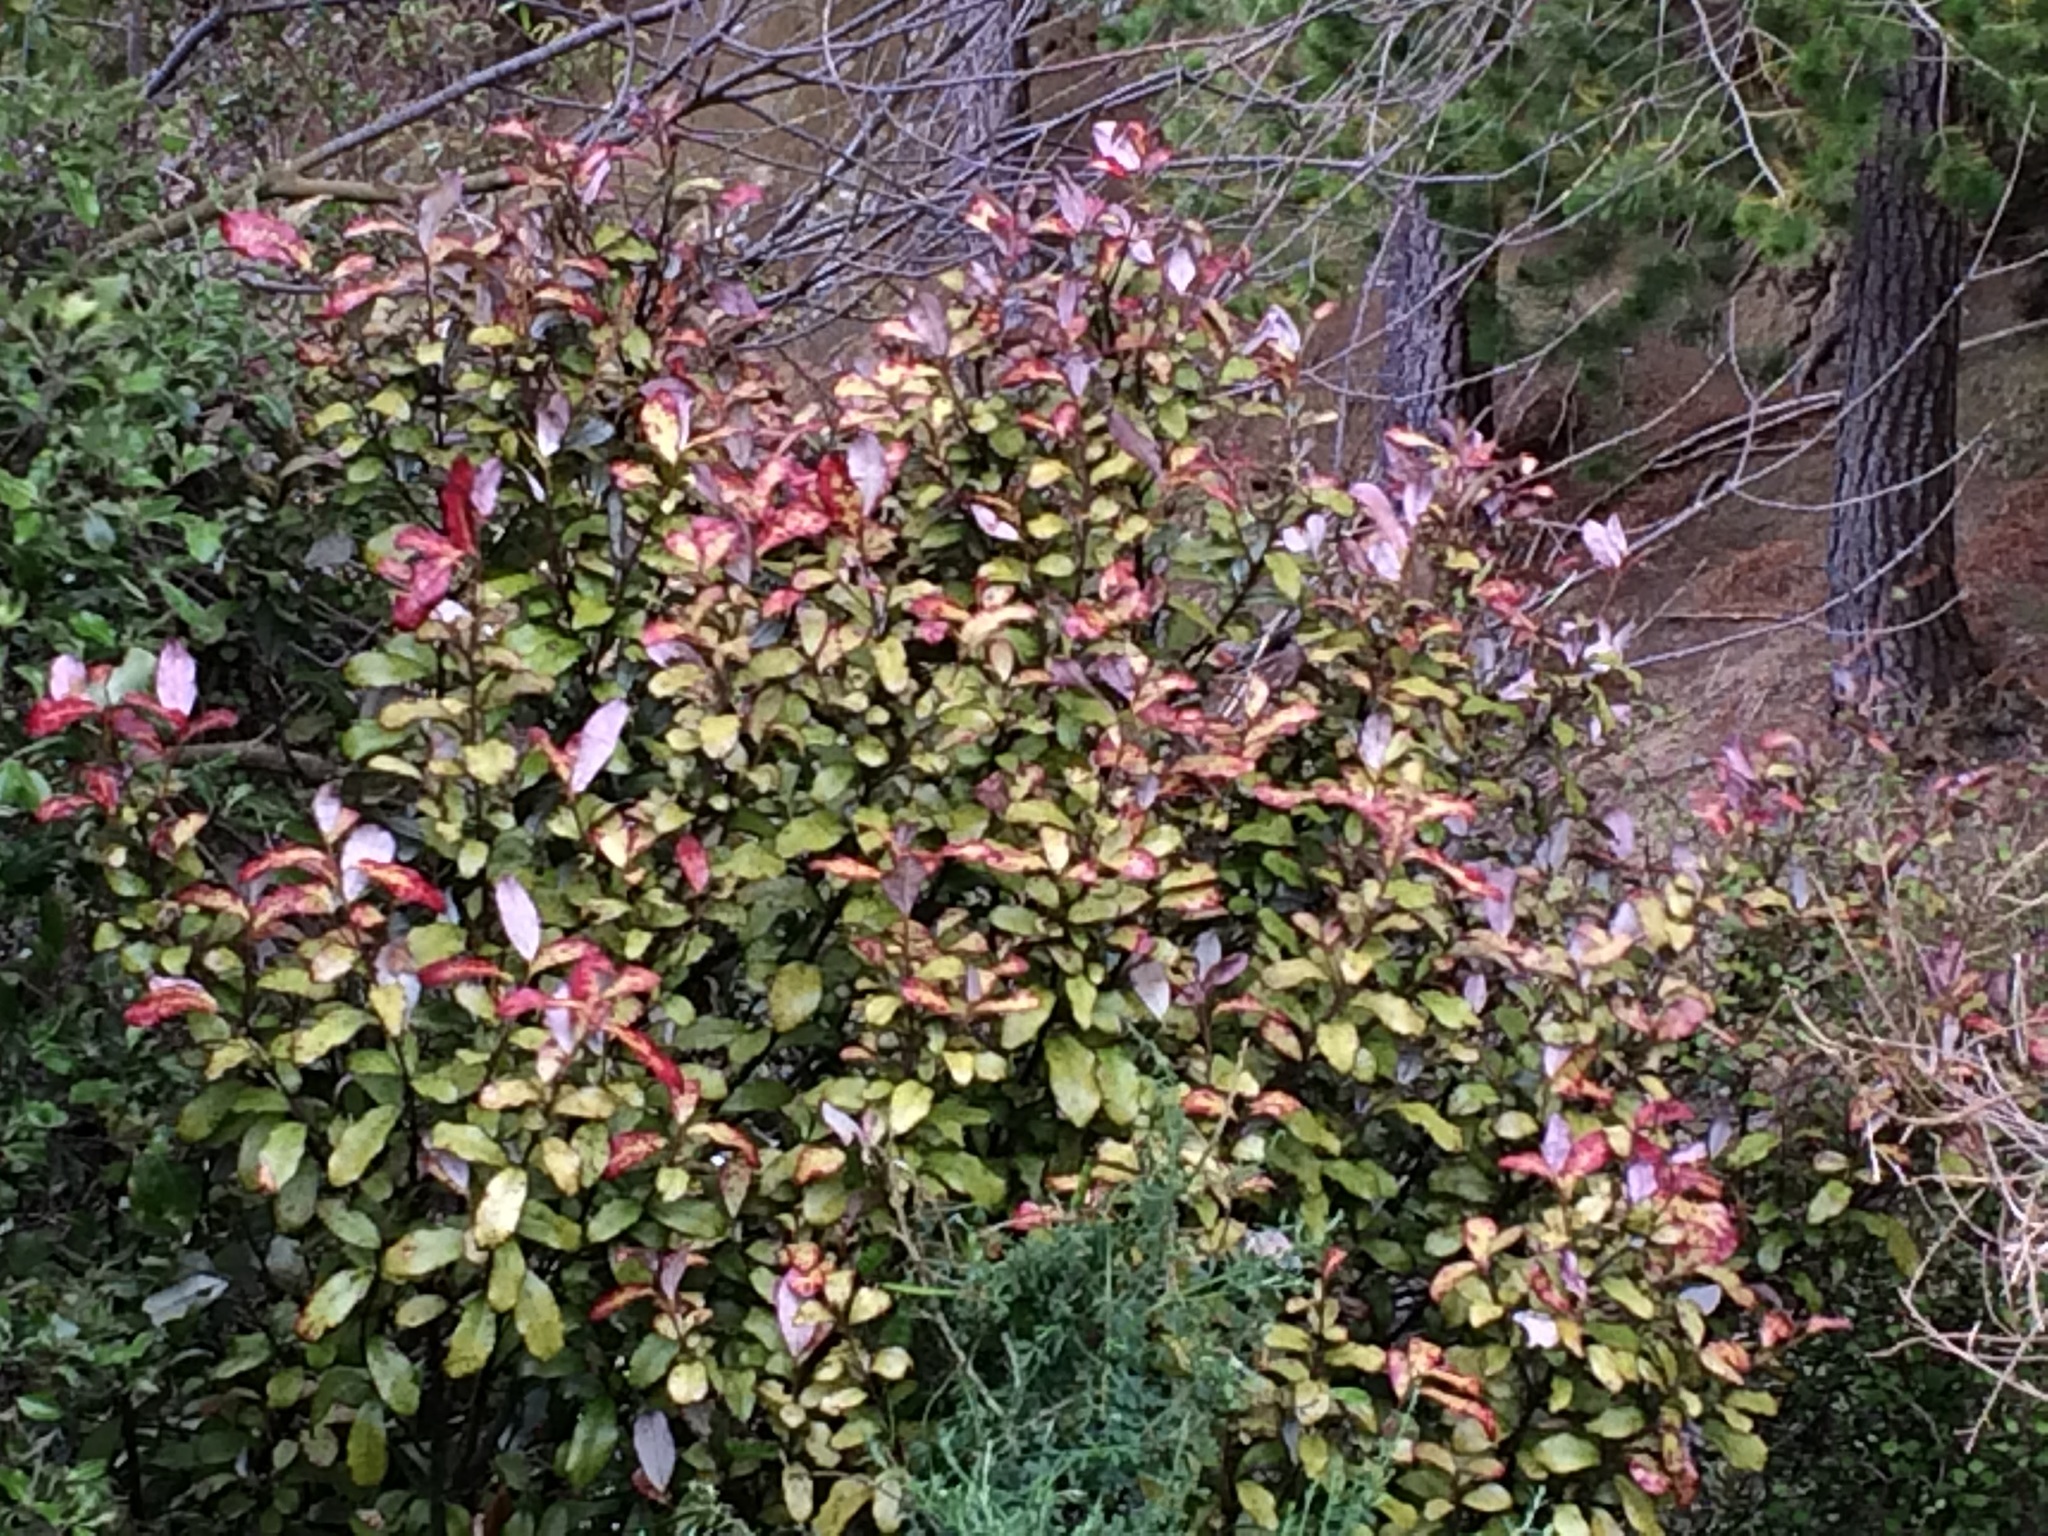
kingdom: Plantae
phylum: Tracheophyta
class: Magnoliopsida
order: Canellales
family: Winteraceae
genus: Pseudowintera
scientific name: Pseudowintera colorata
